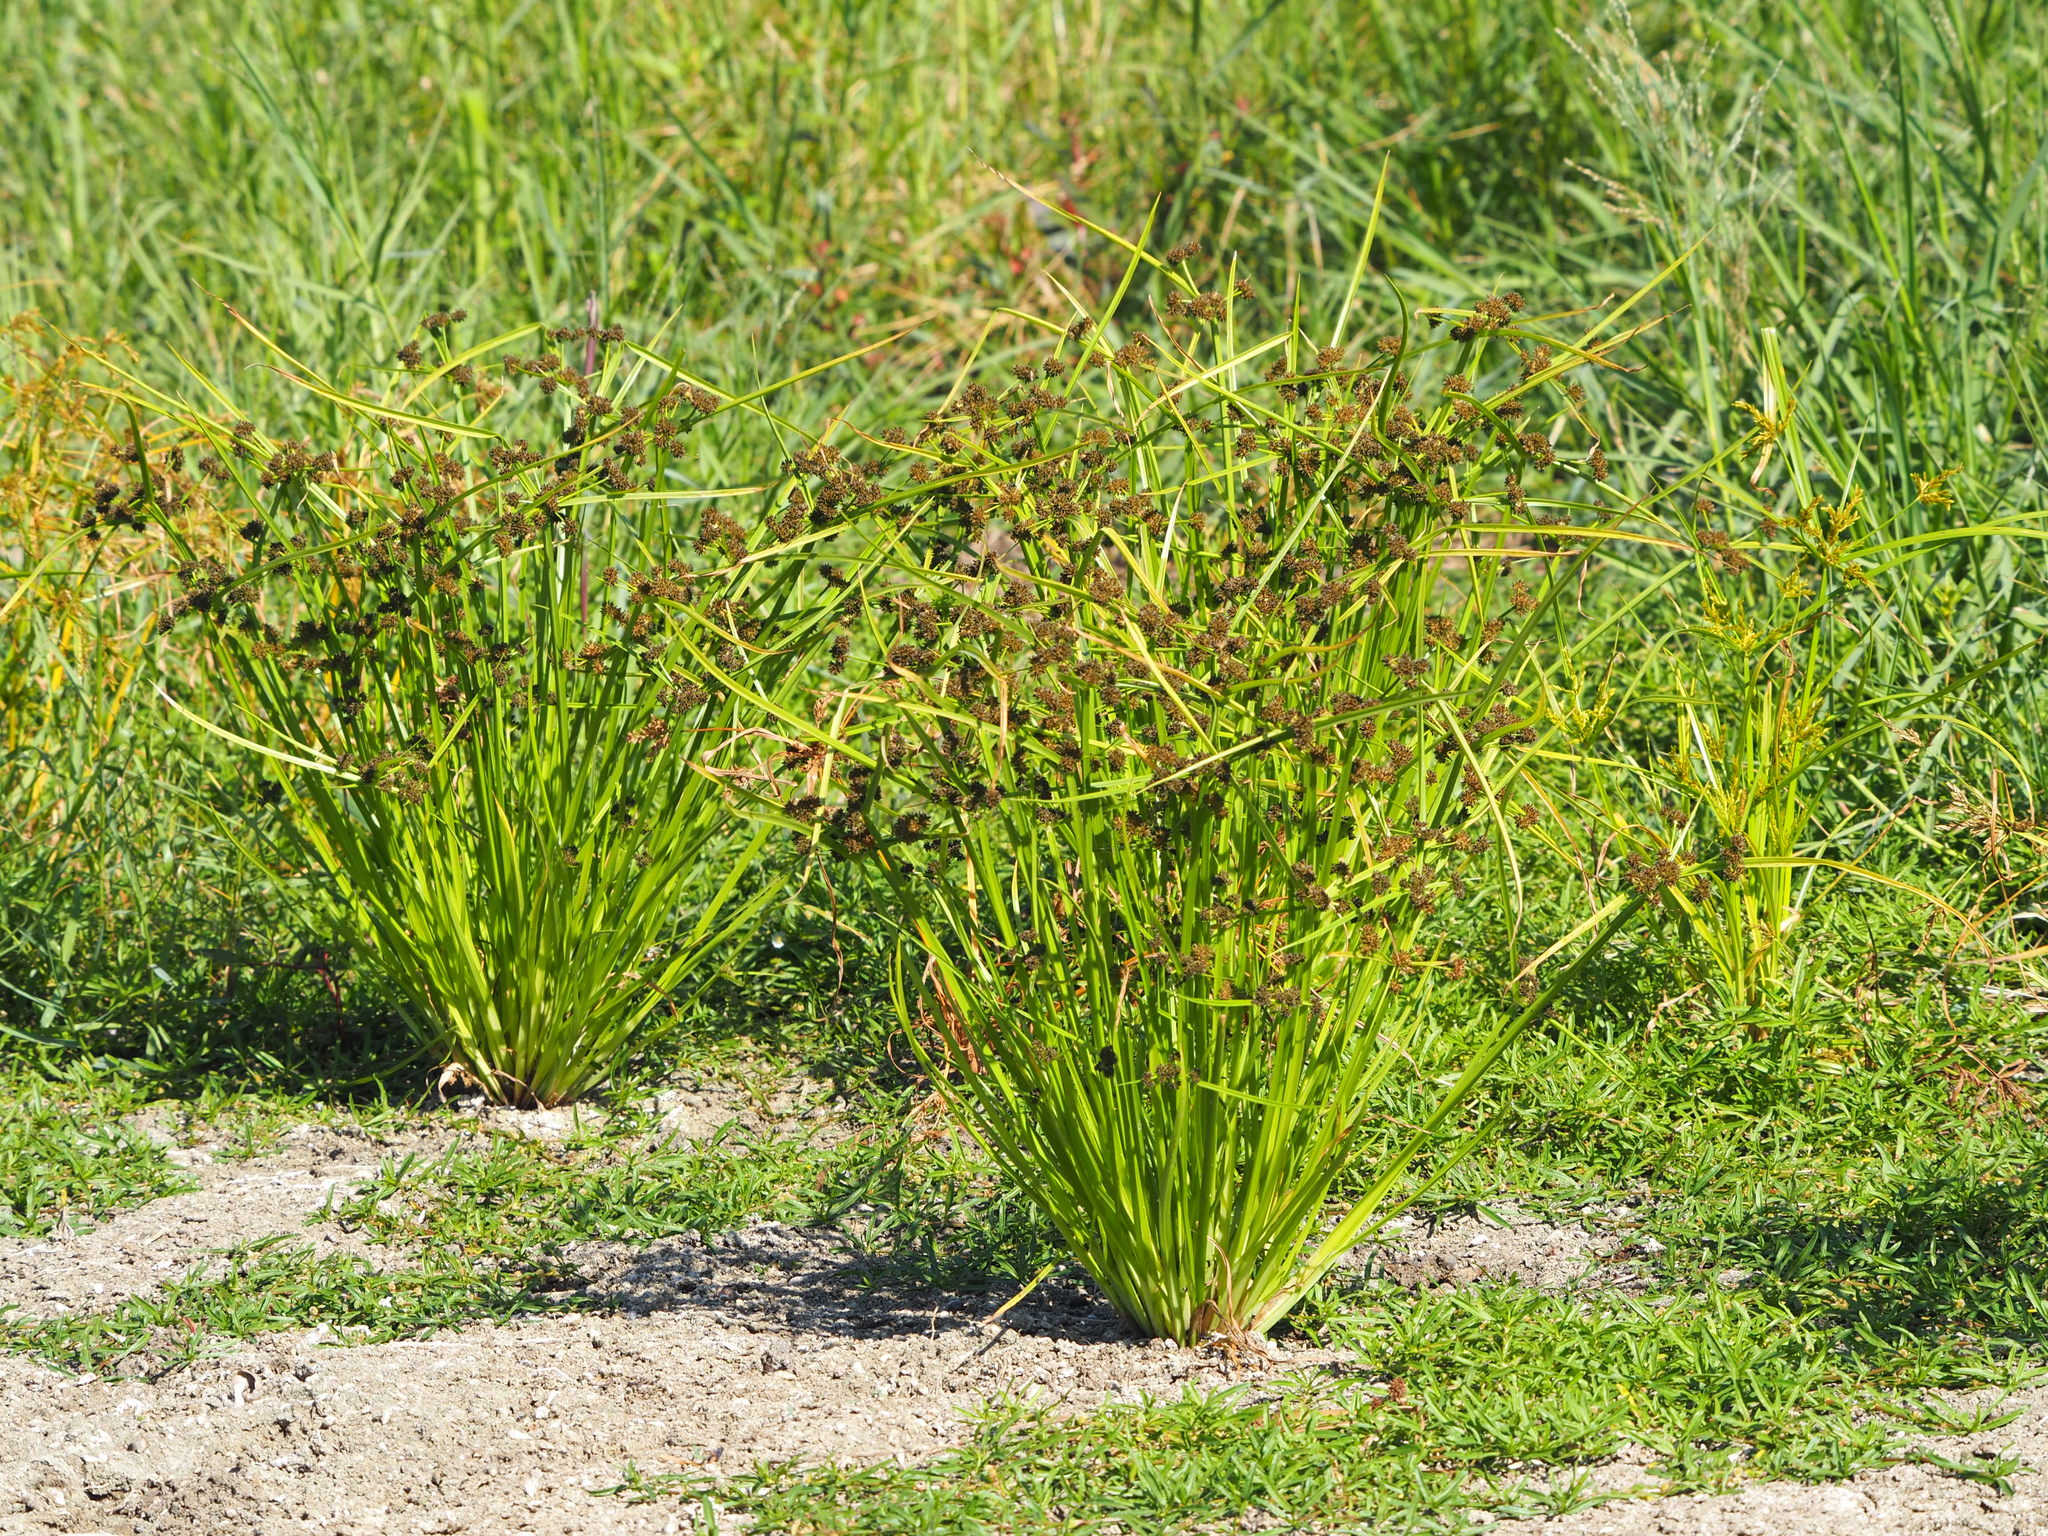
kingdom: Plantae
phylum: Tracheophyta
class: Liliopsida
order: Poales
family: Cyperaceae
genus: Cyperus
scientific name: Cyperus difformis
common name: Variable flatsedge
